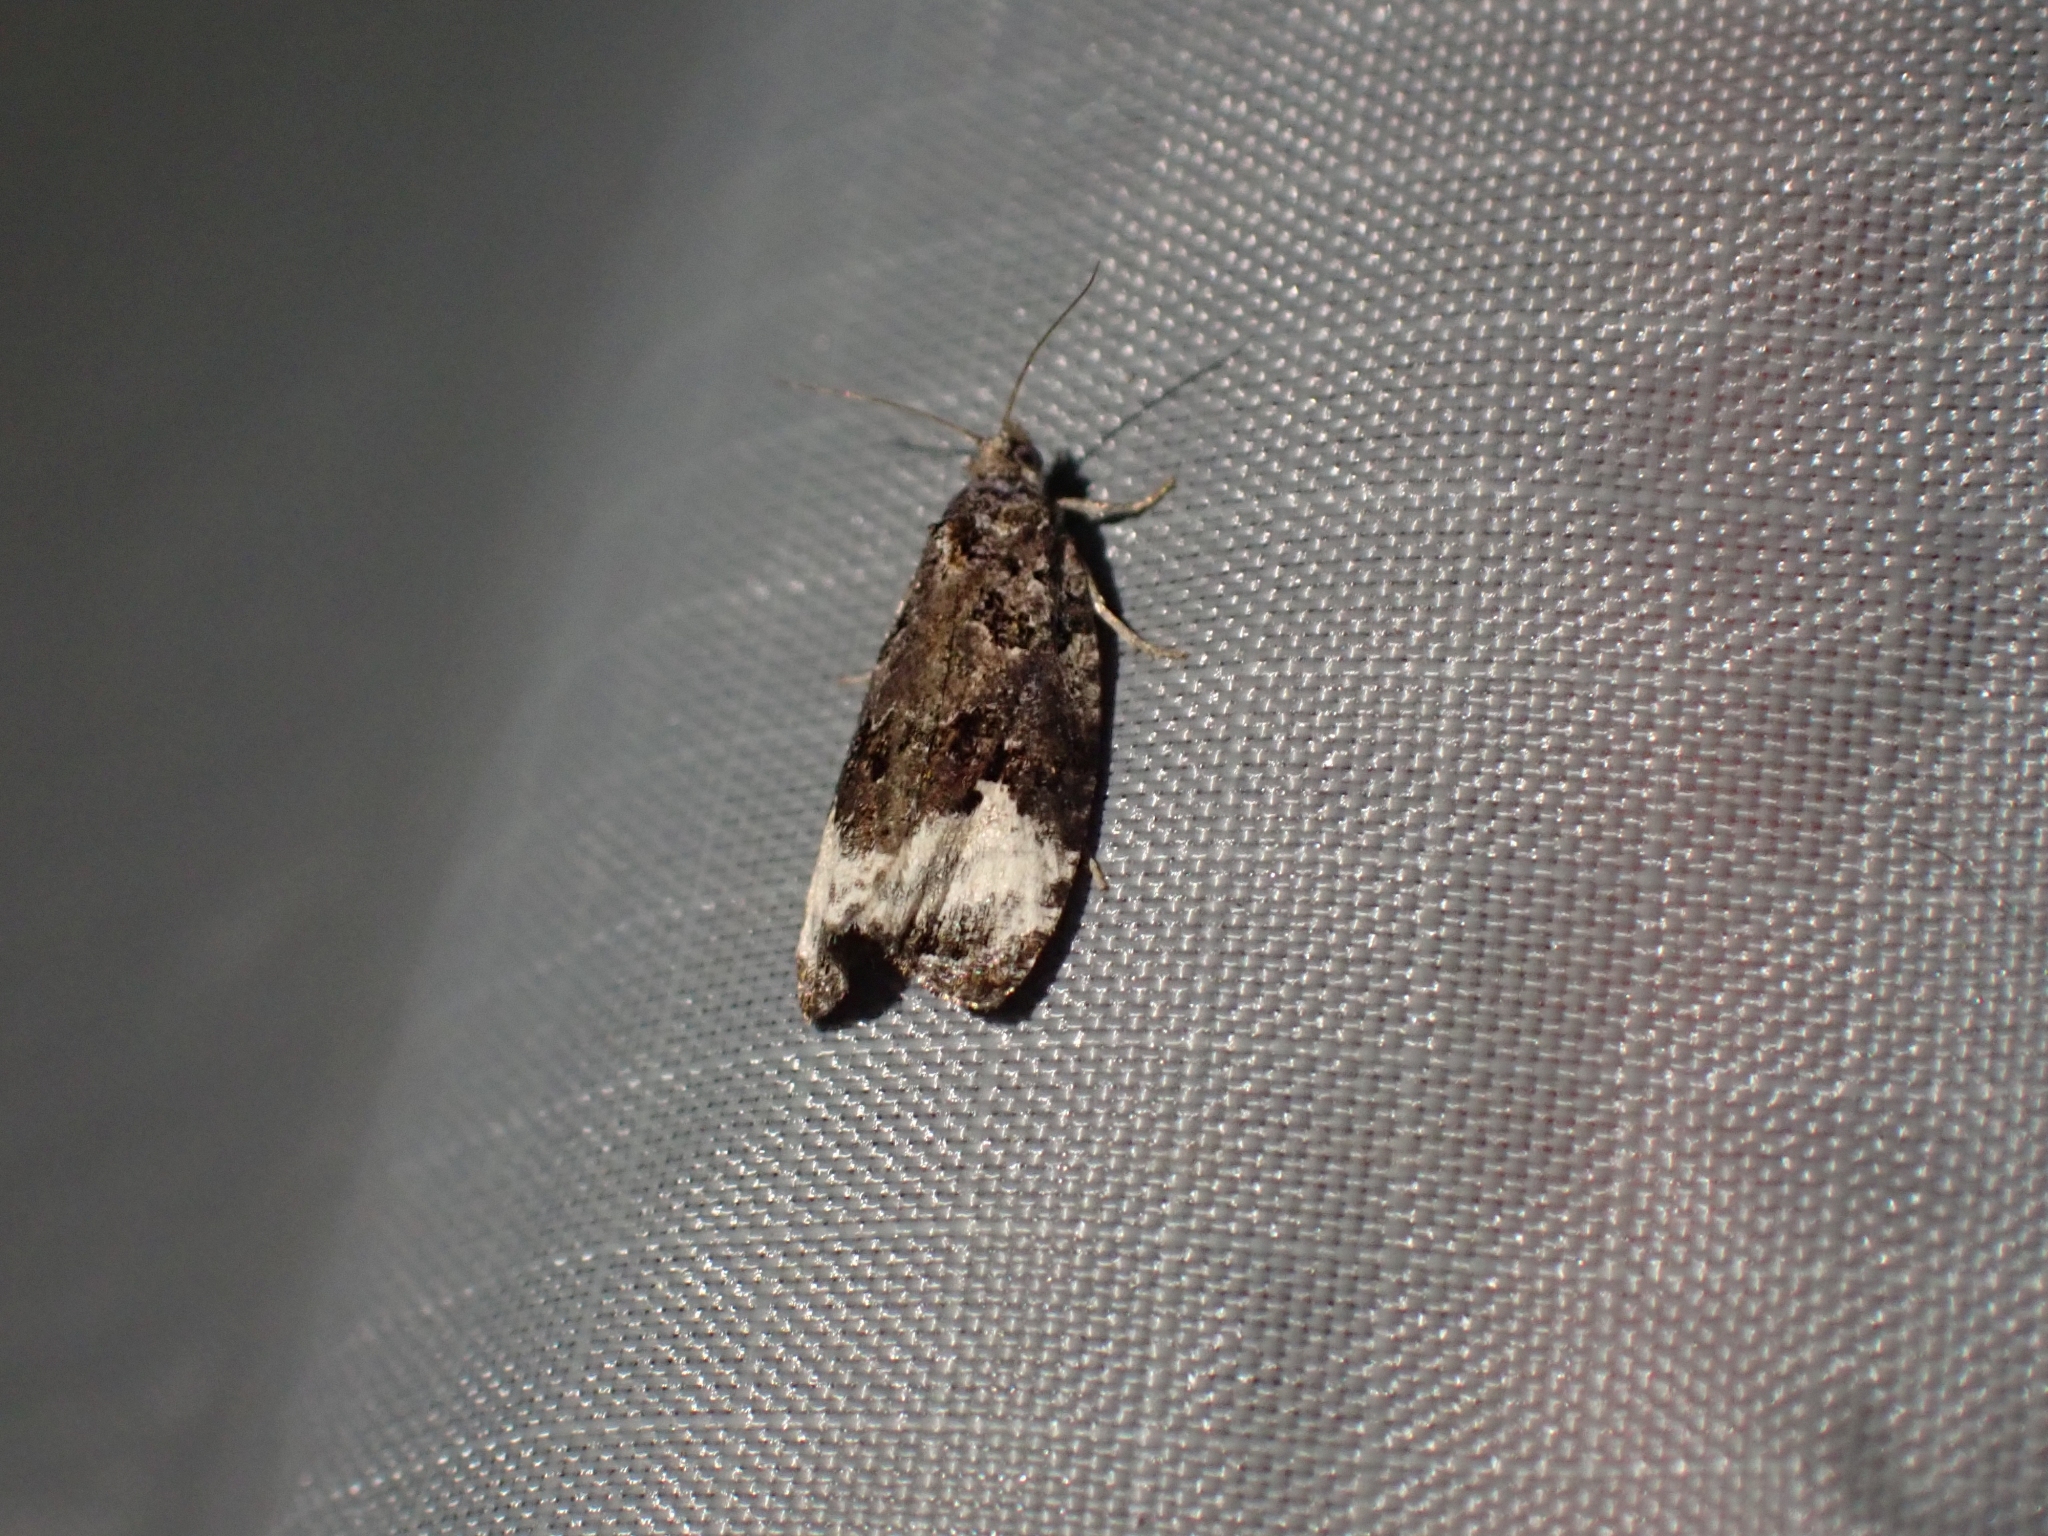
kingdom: Animalia
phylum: Arthropoda
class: Insecta
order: Lepidoptera
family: Tortricidae
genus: Apotomis
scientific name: Apotomis capreana
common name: Sallow marble
